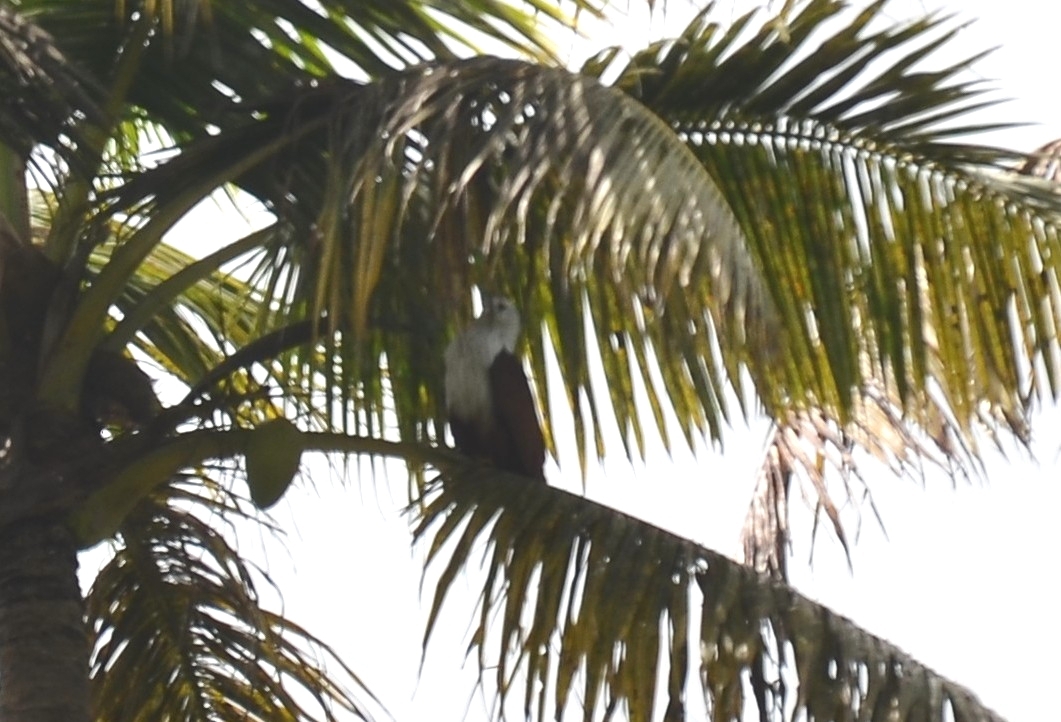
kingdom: Animalia
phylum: Chordata
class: Aves
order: Accipitriformes
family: Accipitridae
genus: Haliastur
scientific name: Haliastur indus
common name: Brahminy kite
